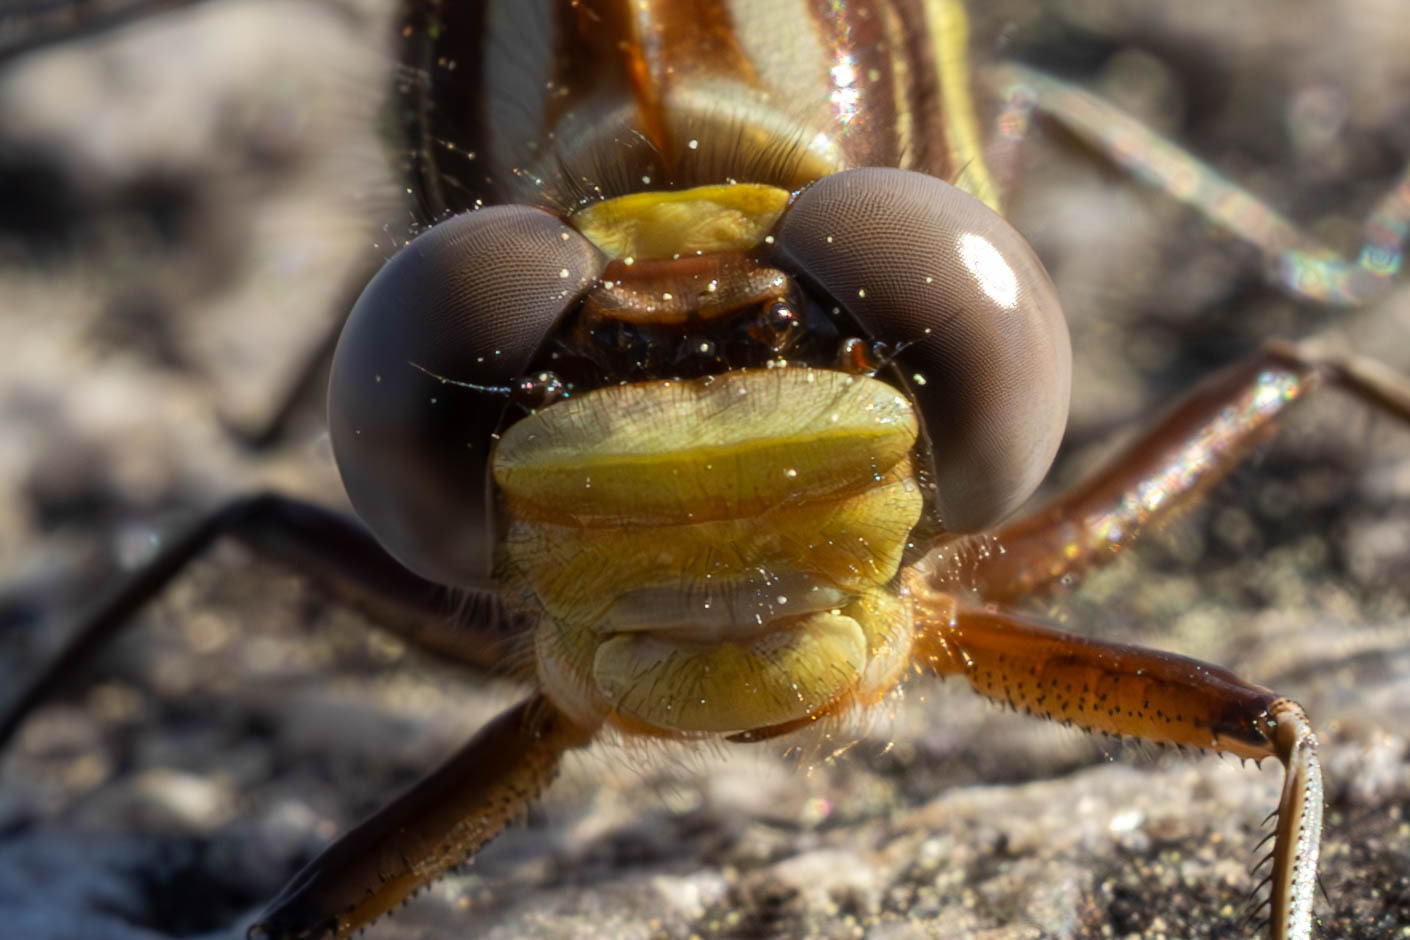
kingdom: Animalia
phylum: Arthropoda
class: Insecta
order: Odonata
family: Gomphidae
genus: Phanogomphus
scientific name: Phanogomphus exilis
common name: Lancet clubtail
